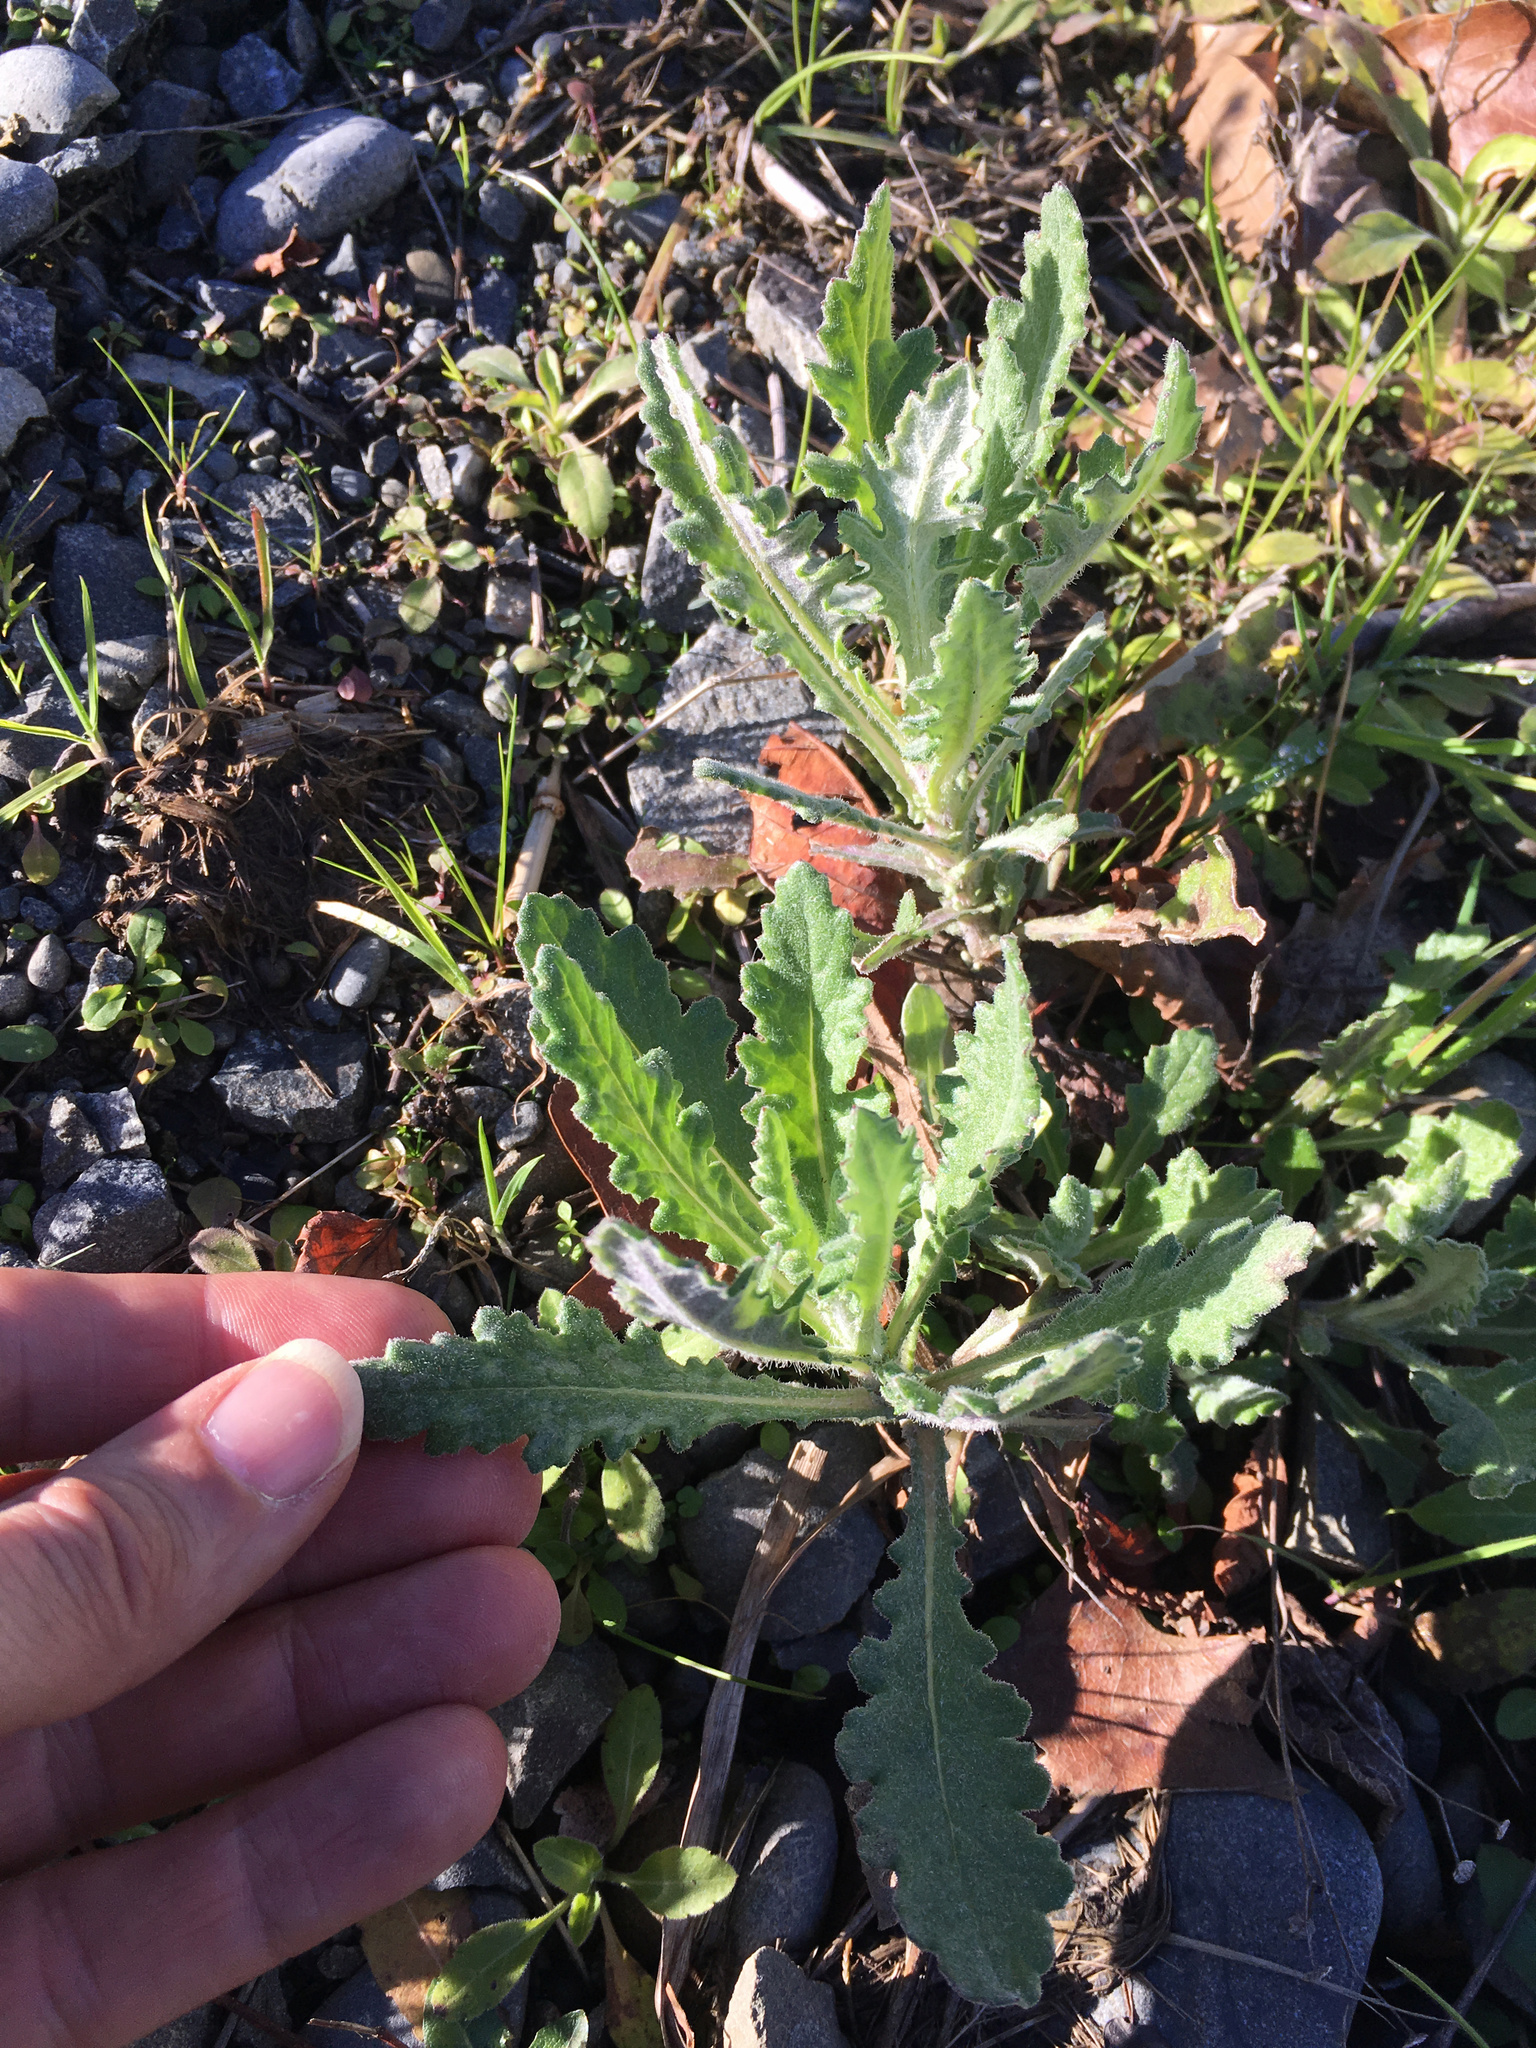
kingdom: Plantae
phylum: Tracheophyta
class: Magnoliopsida
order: Asterales
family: Asteraceae
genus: Senecio
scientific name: Senecio glomeratus
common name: Cutleaf burnweed
